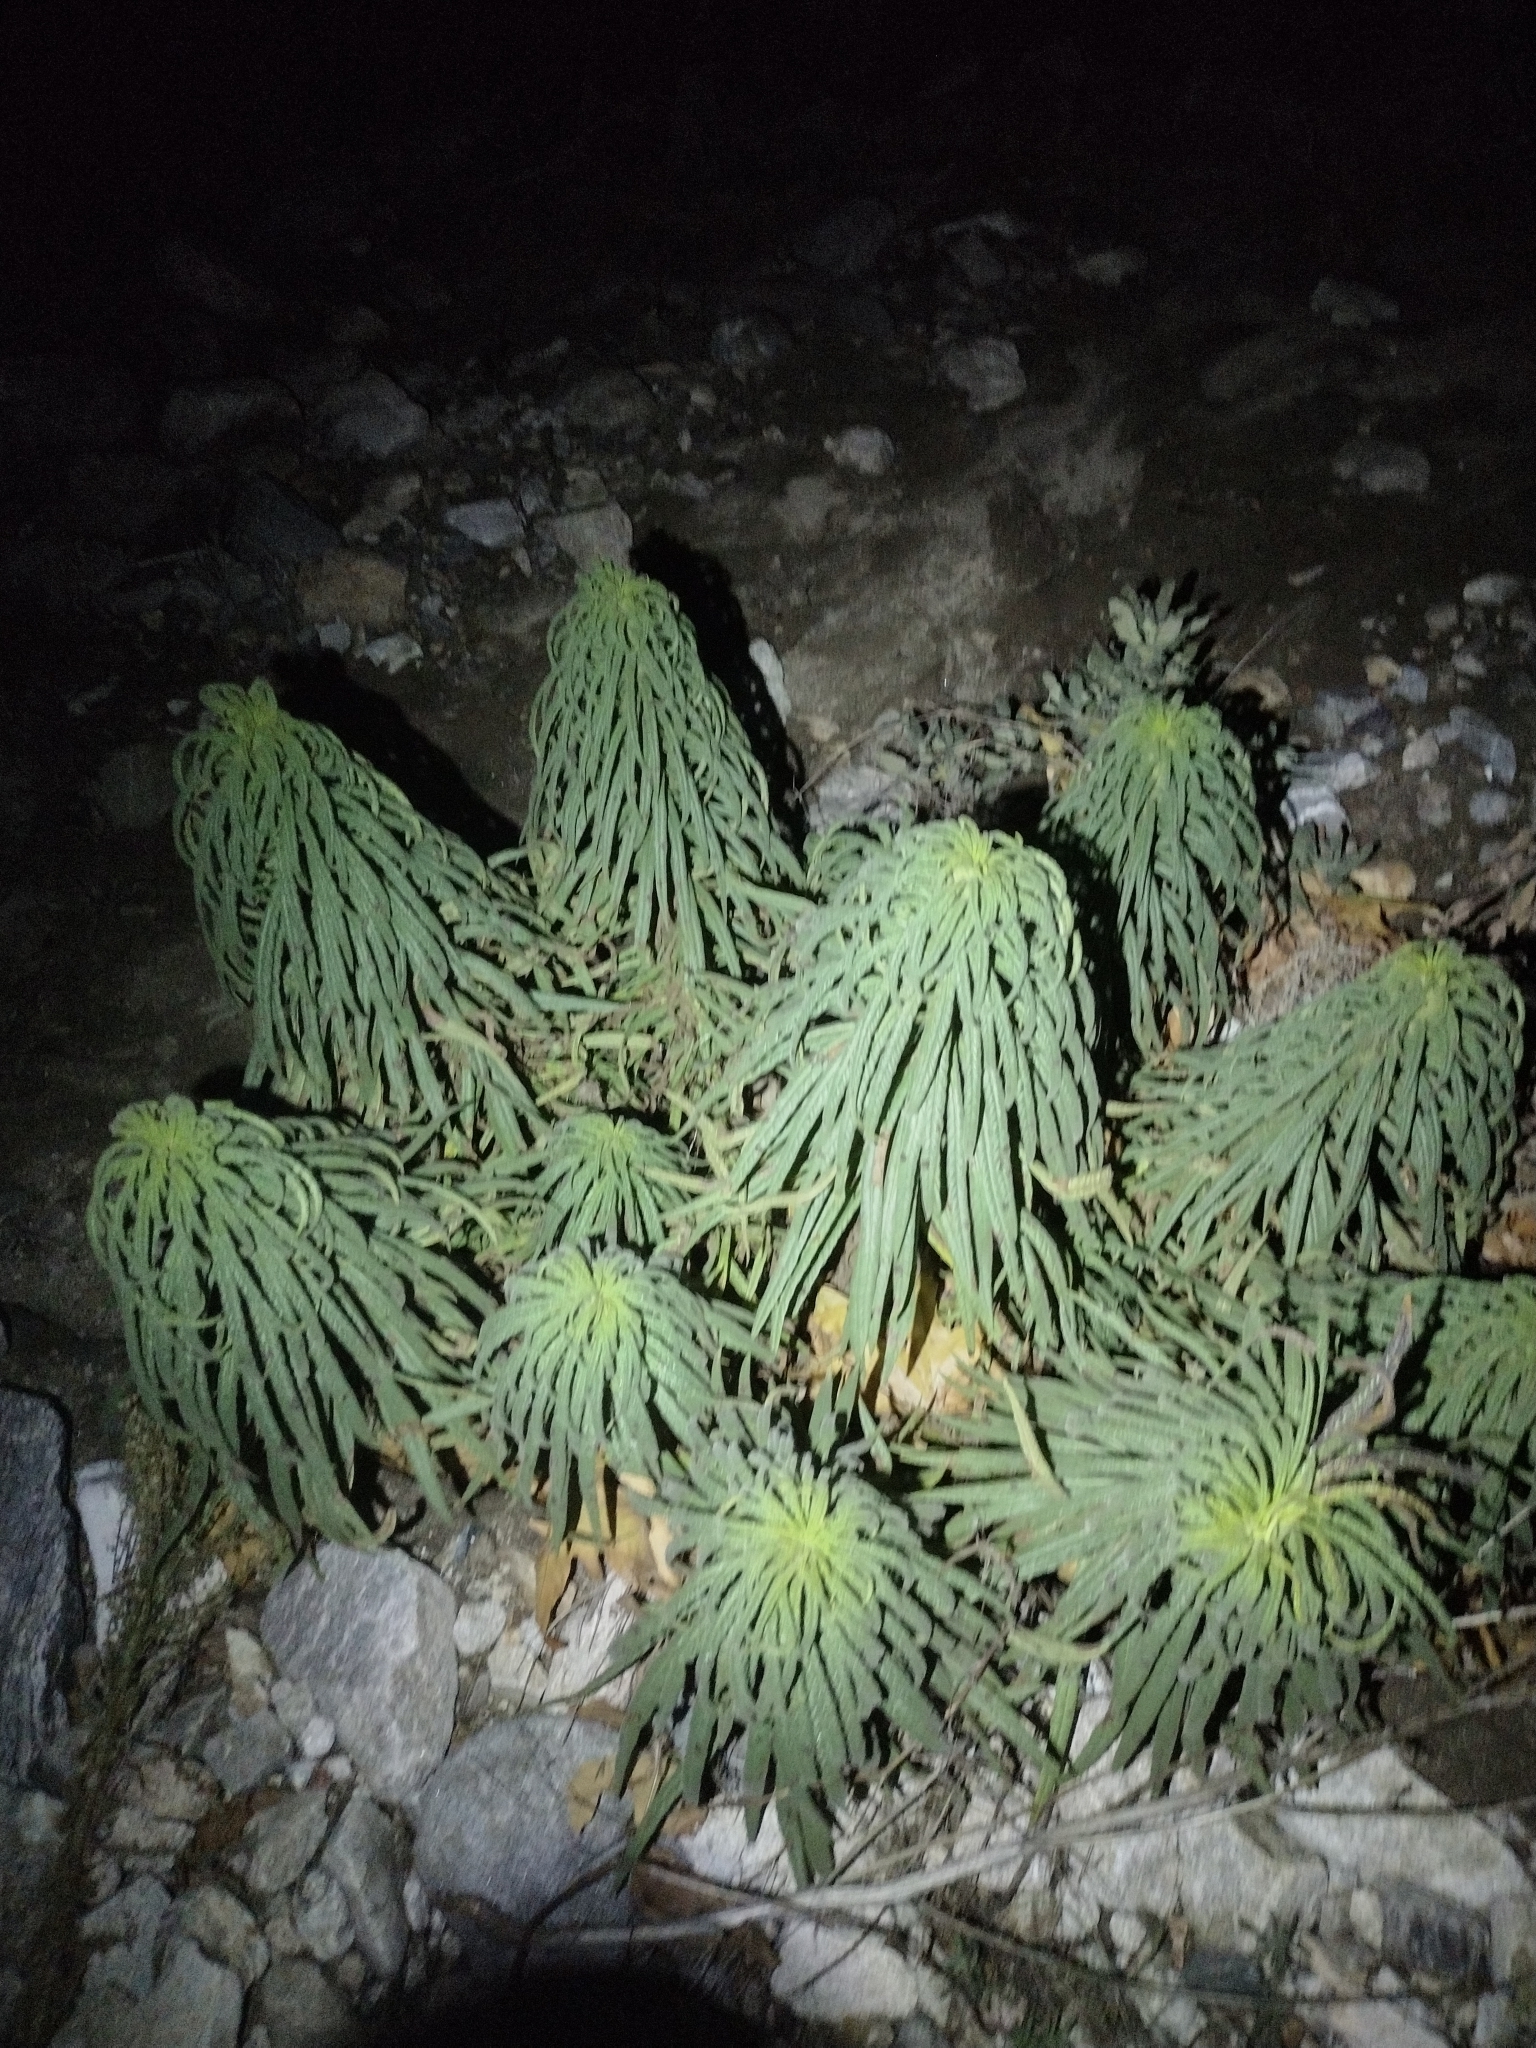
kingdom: Plantae
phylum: Tracheophyta
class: Magnoliopsida
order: Boraginales
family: Namaceae
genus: Turricula
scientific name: Turricula parryi
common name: Poodle-dog-bush
